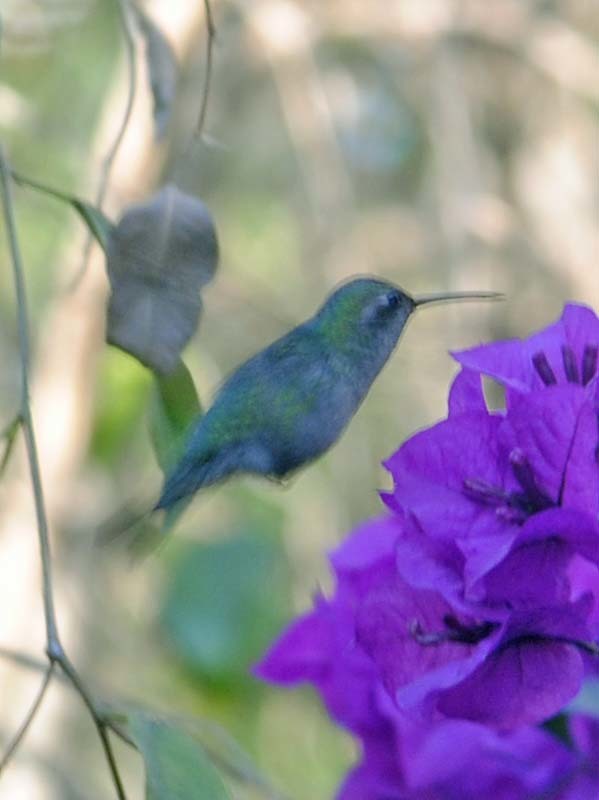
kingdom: Animalia
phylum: Chordata
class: Aves
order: Apodiformes
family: Trochilidae
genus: Cynanthus
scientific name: Cynanthus latirostris
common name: Broad-billed hummingbird
